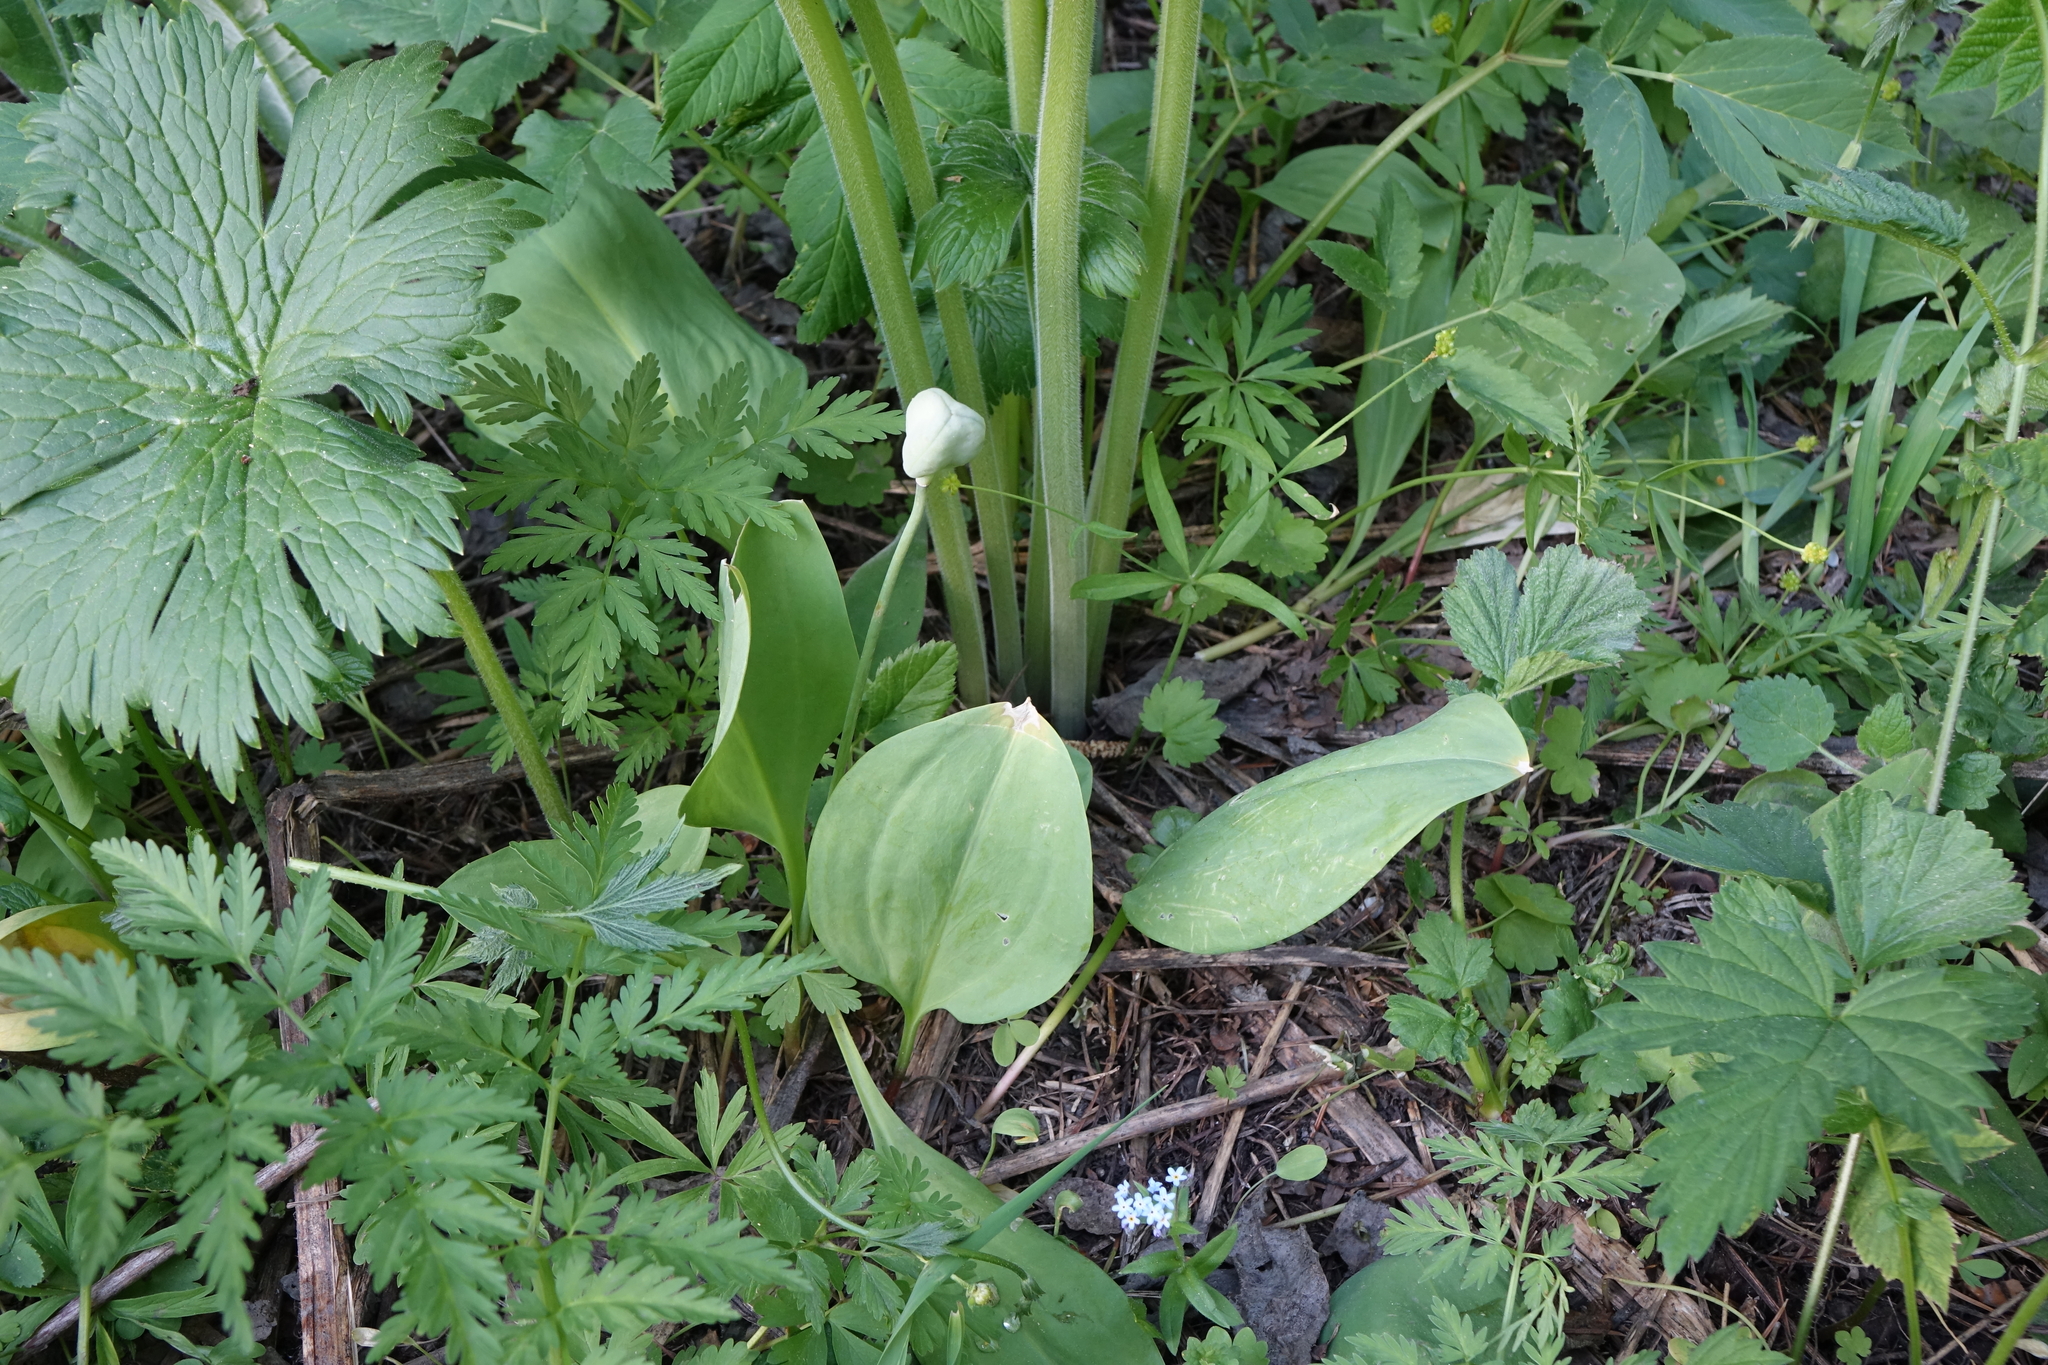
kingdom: Plantae
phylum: Tracheophyta
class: Liliopsida
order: Liliales
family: Liliaceae
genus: Erythronium
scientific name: Erythronium sibiricum
